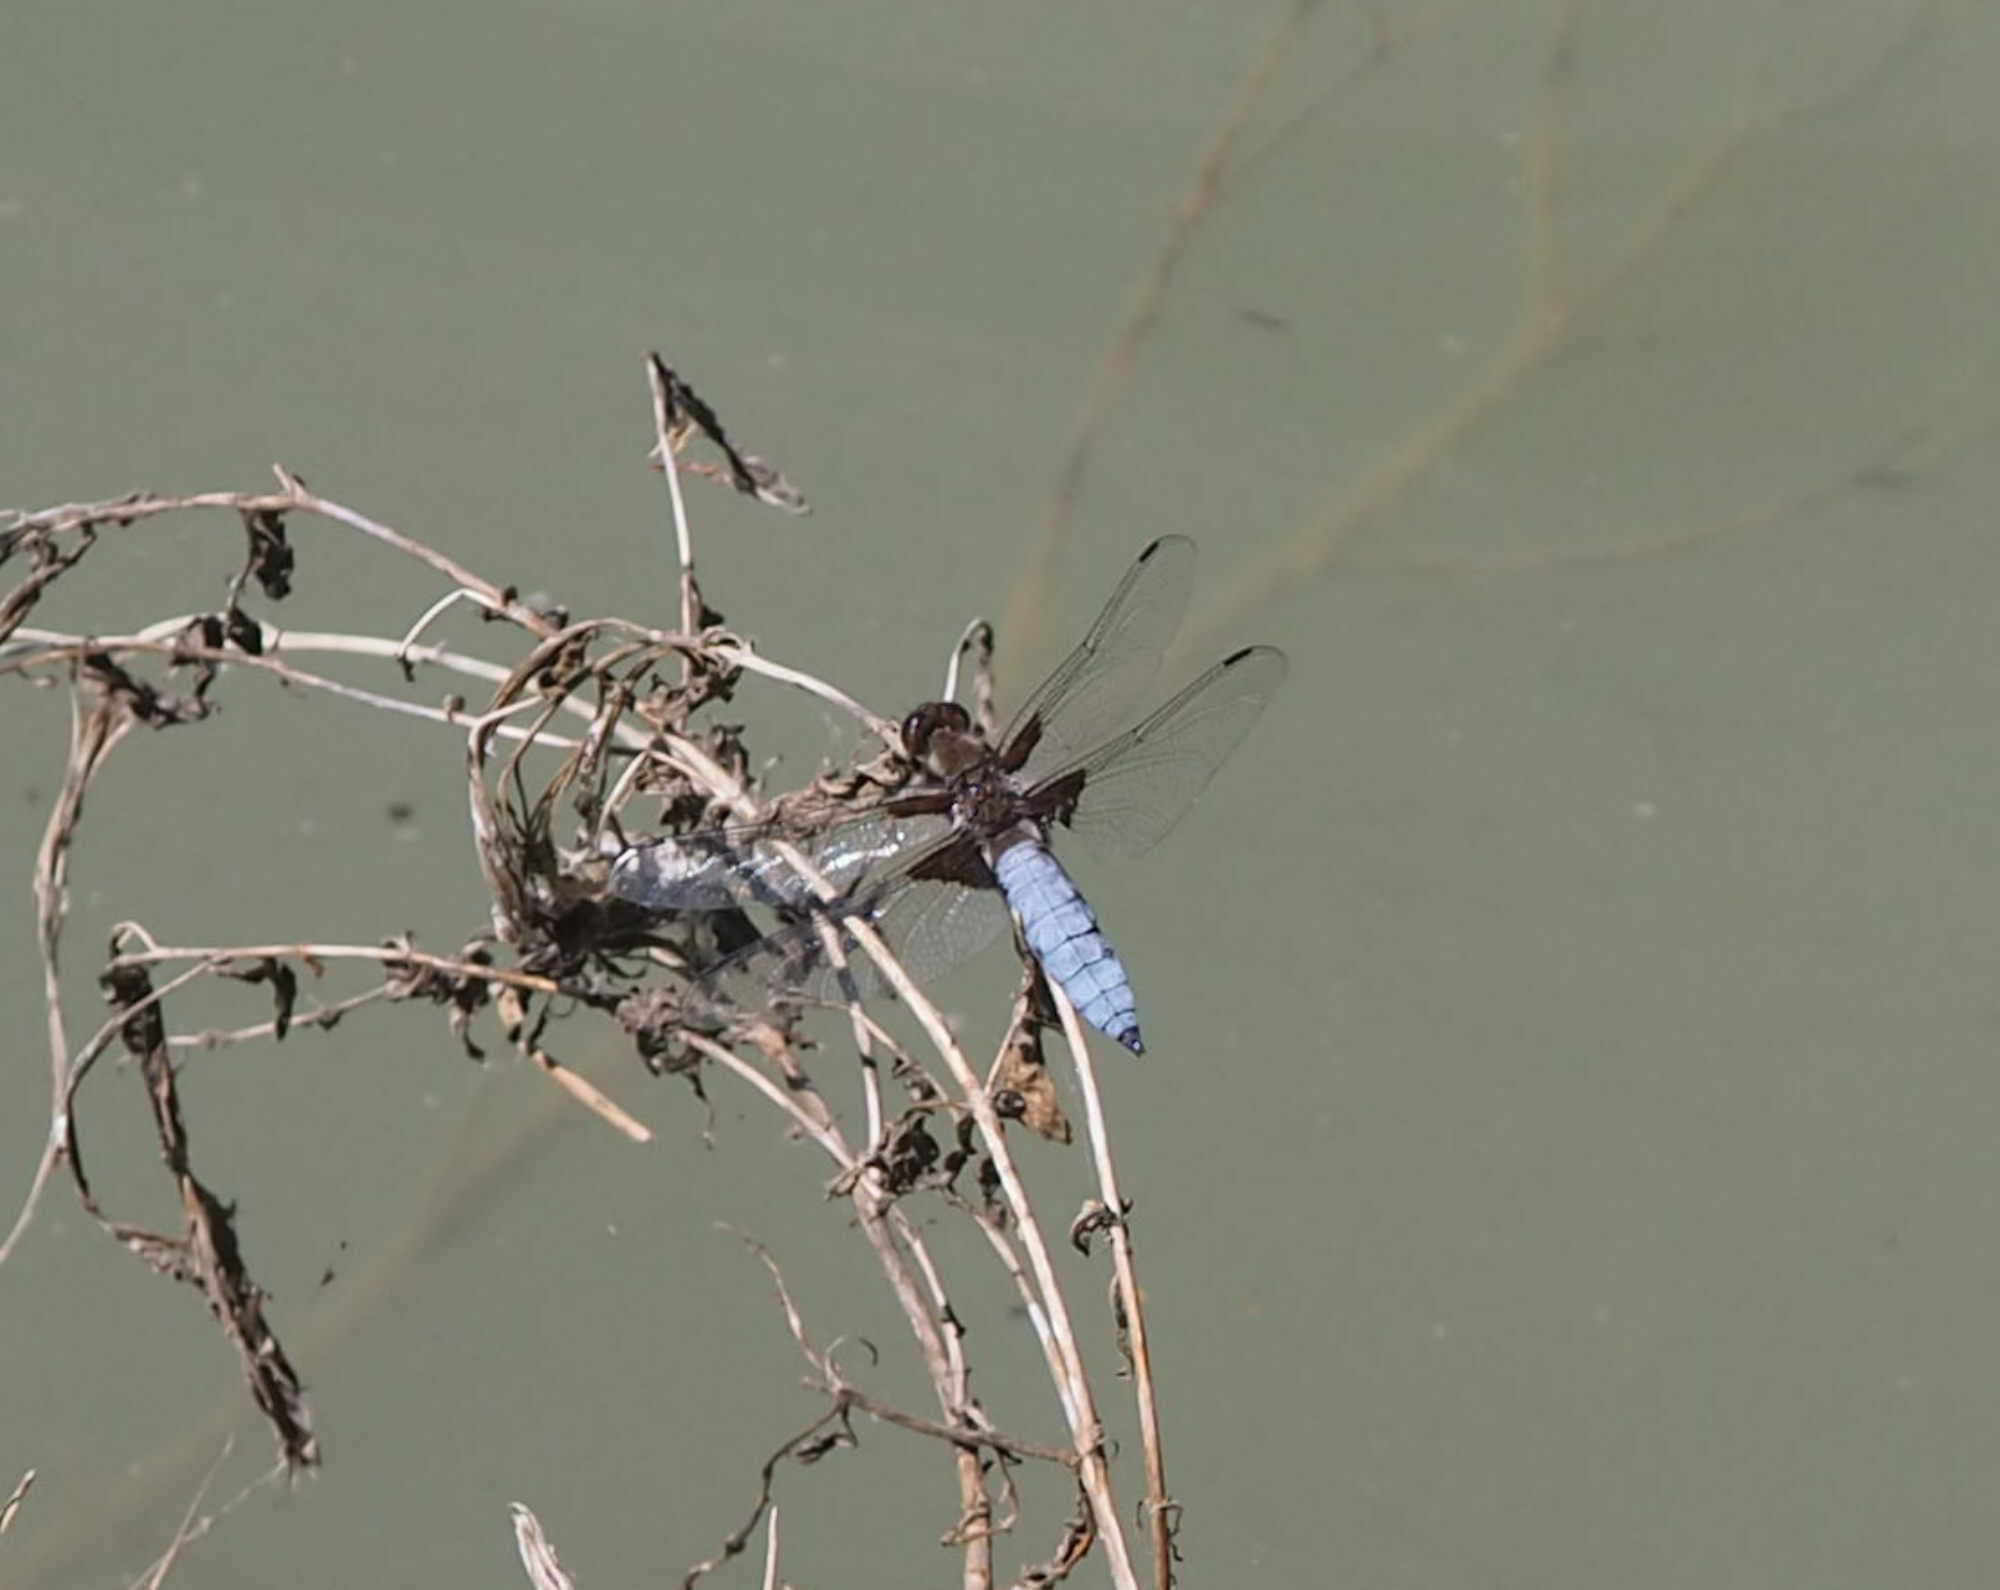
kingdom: Animalia
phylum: Arthropoda
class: Insecta
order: Odonata
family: Libellulidae
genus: Libellula
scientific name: Libellula depressa
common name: Broad-bodied chaser
